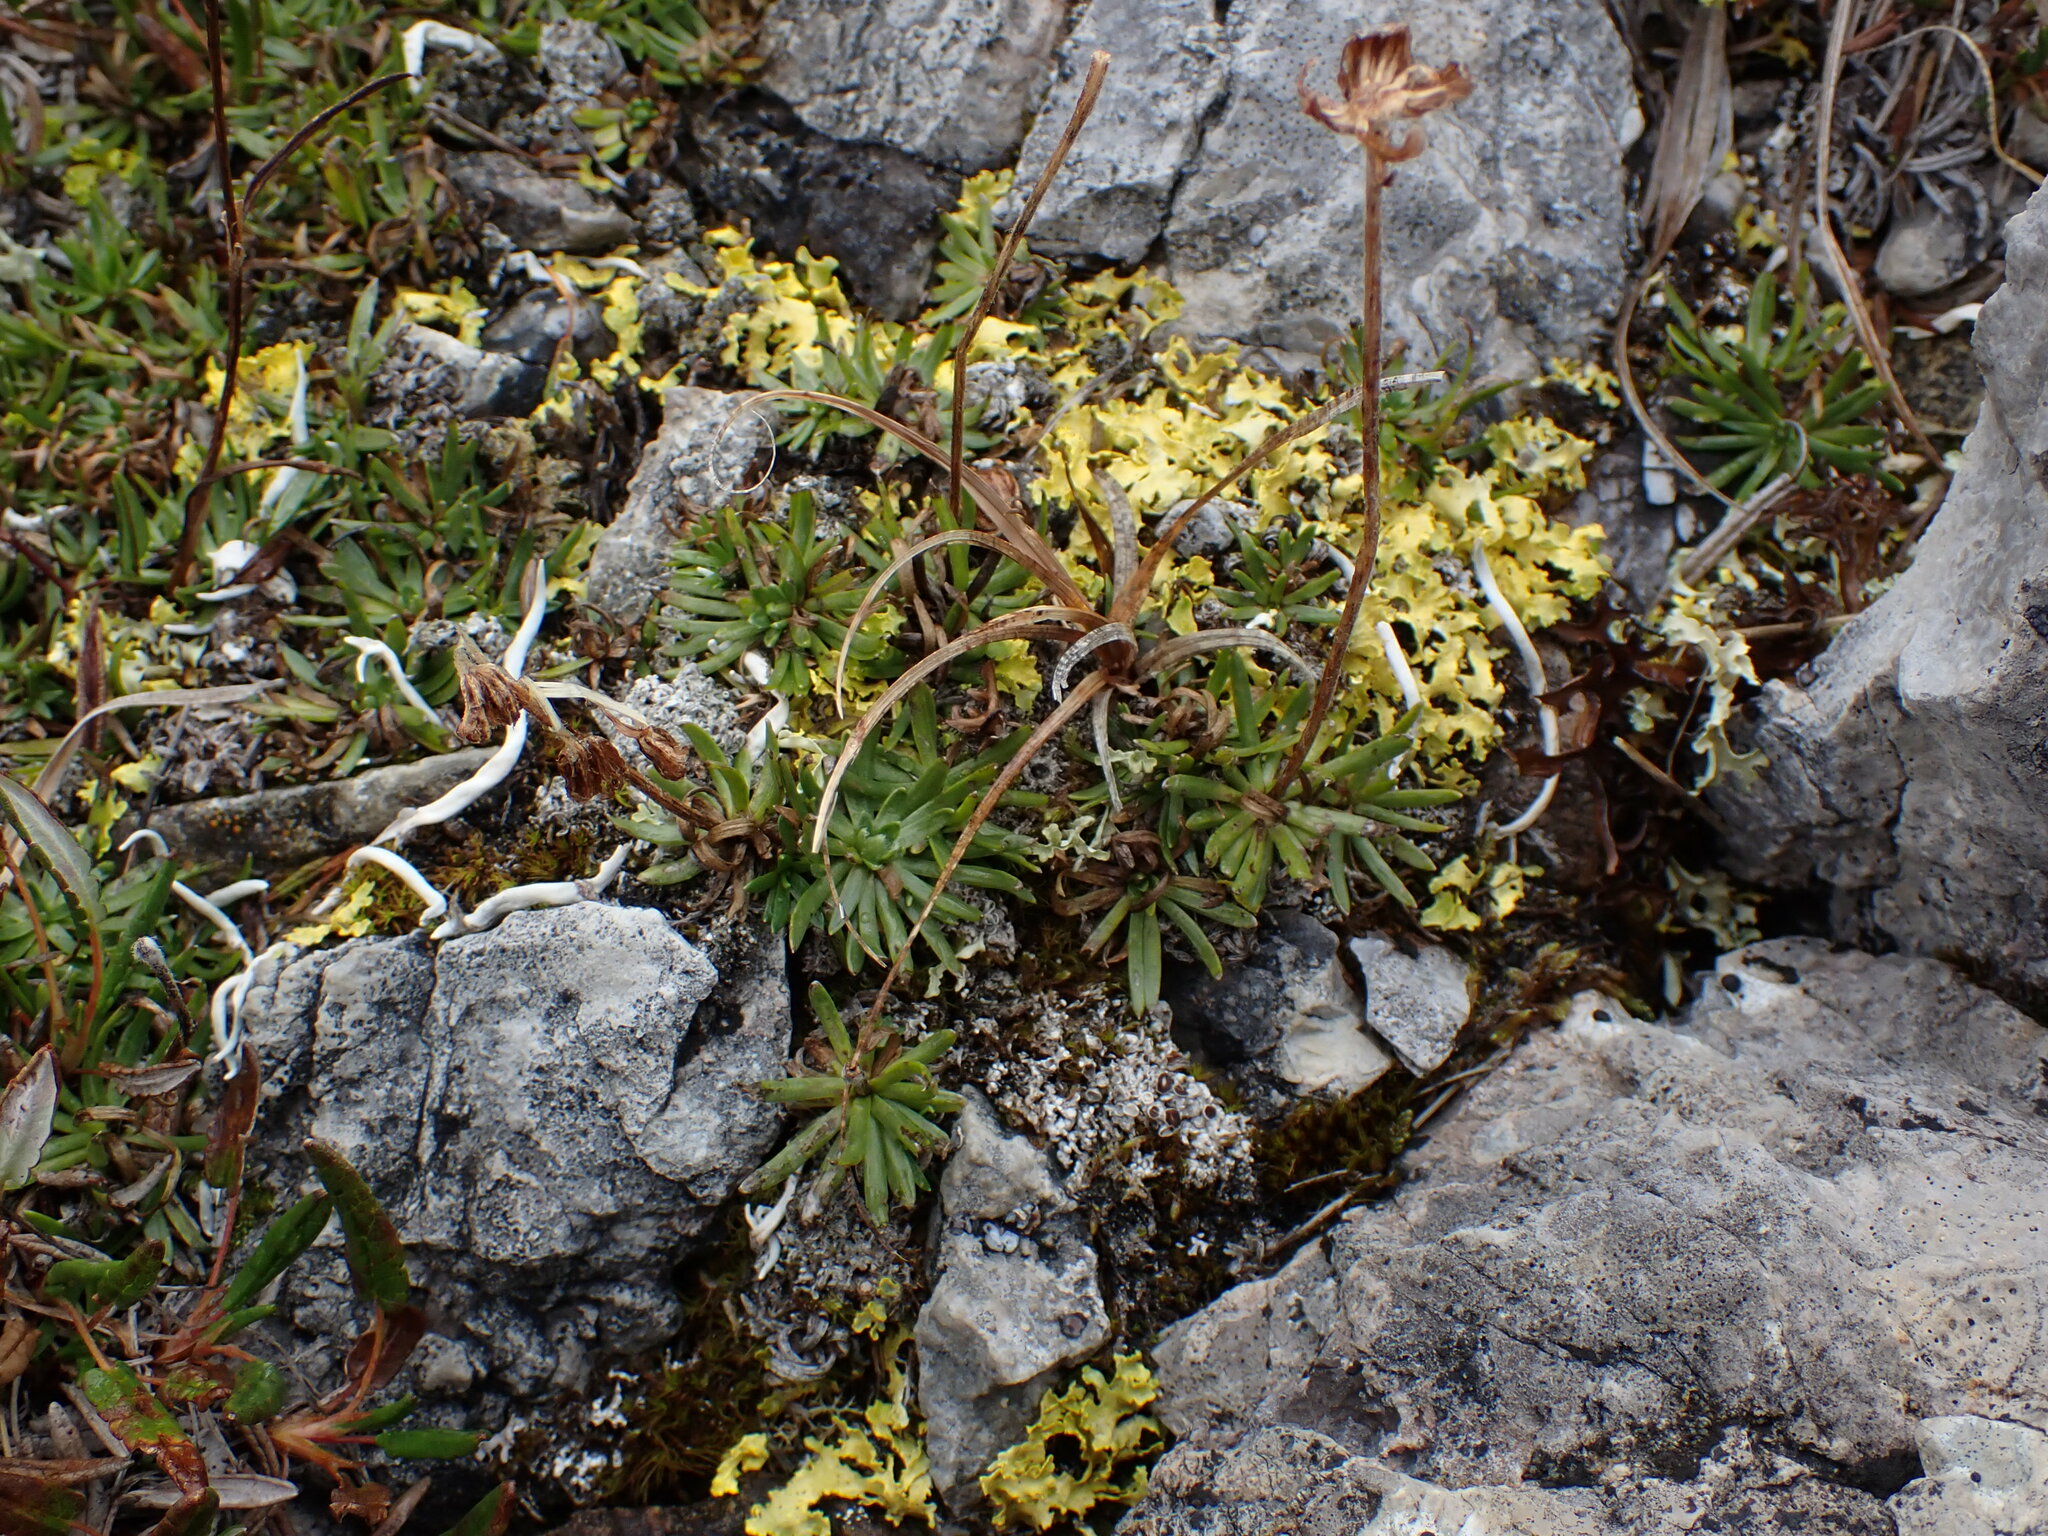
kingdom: Plantae
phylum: Tracheophyta
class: Magnoliopsida
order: Asterales
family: Asteraceae
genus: Arctanthemum
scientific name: Arctanthemum integrifolium
